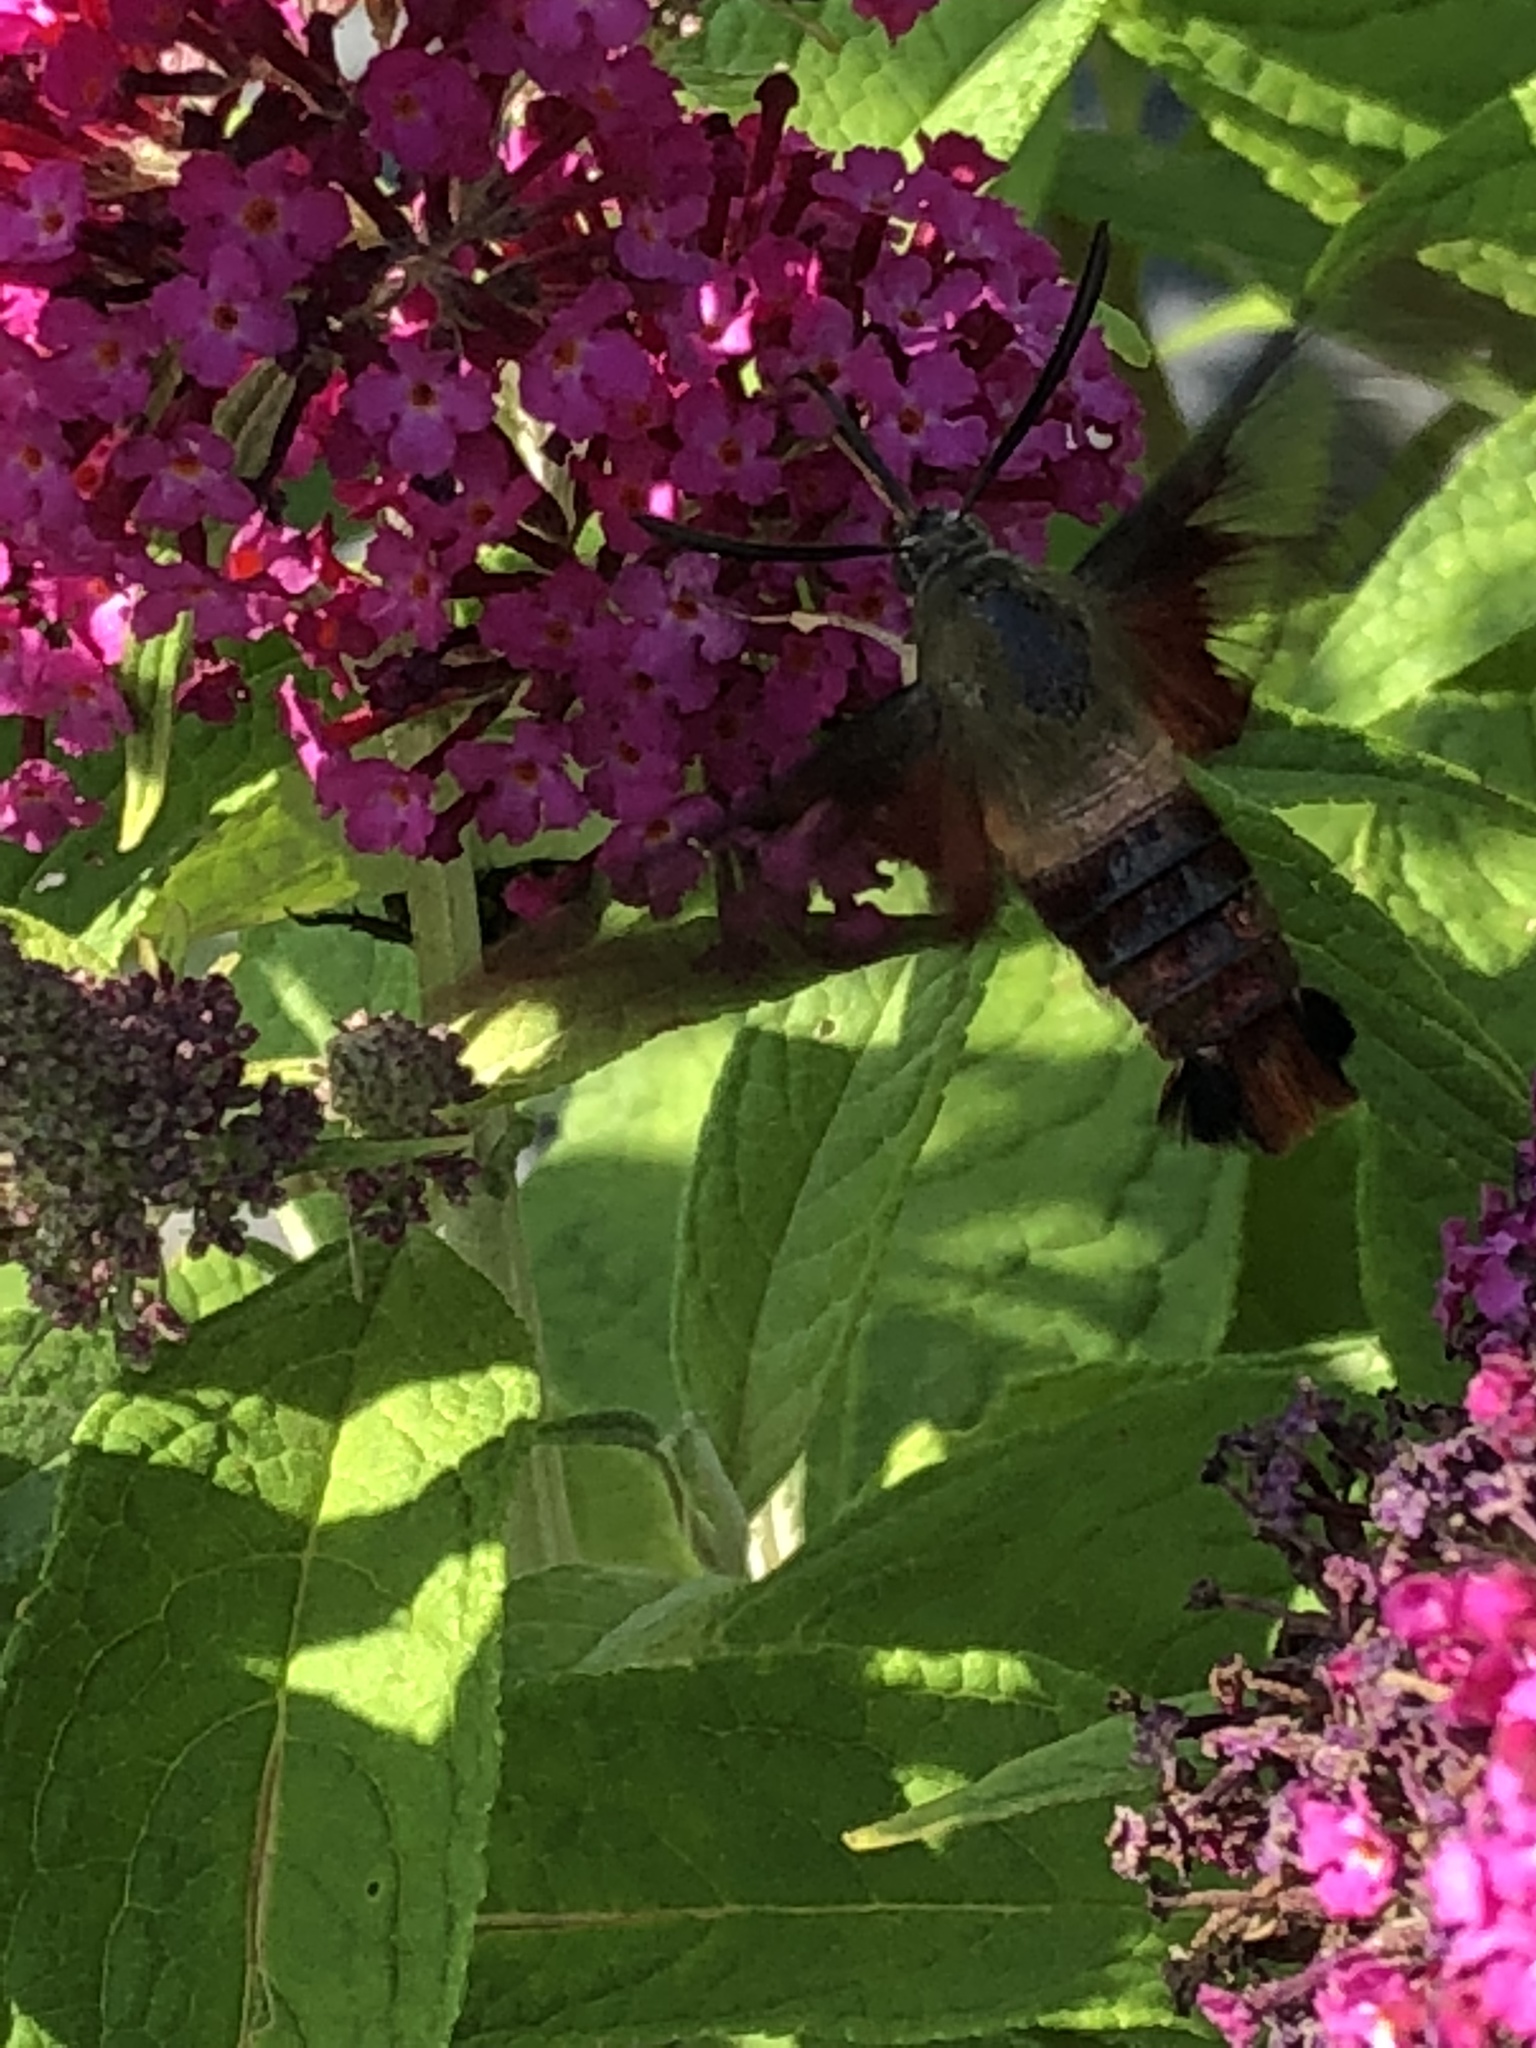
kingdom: Animalia
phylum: Arthropoda
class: Insecta
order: Lepidoptera
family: Sphingidae
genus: Hemaris
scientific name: Hemaris thysbe
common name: Common clear-wing
